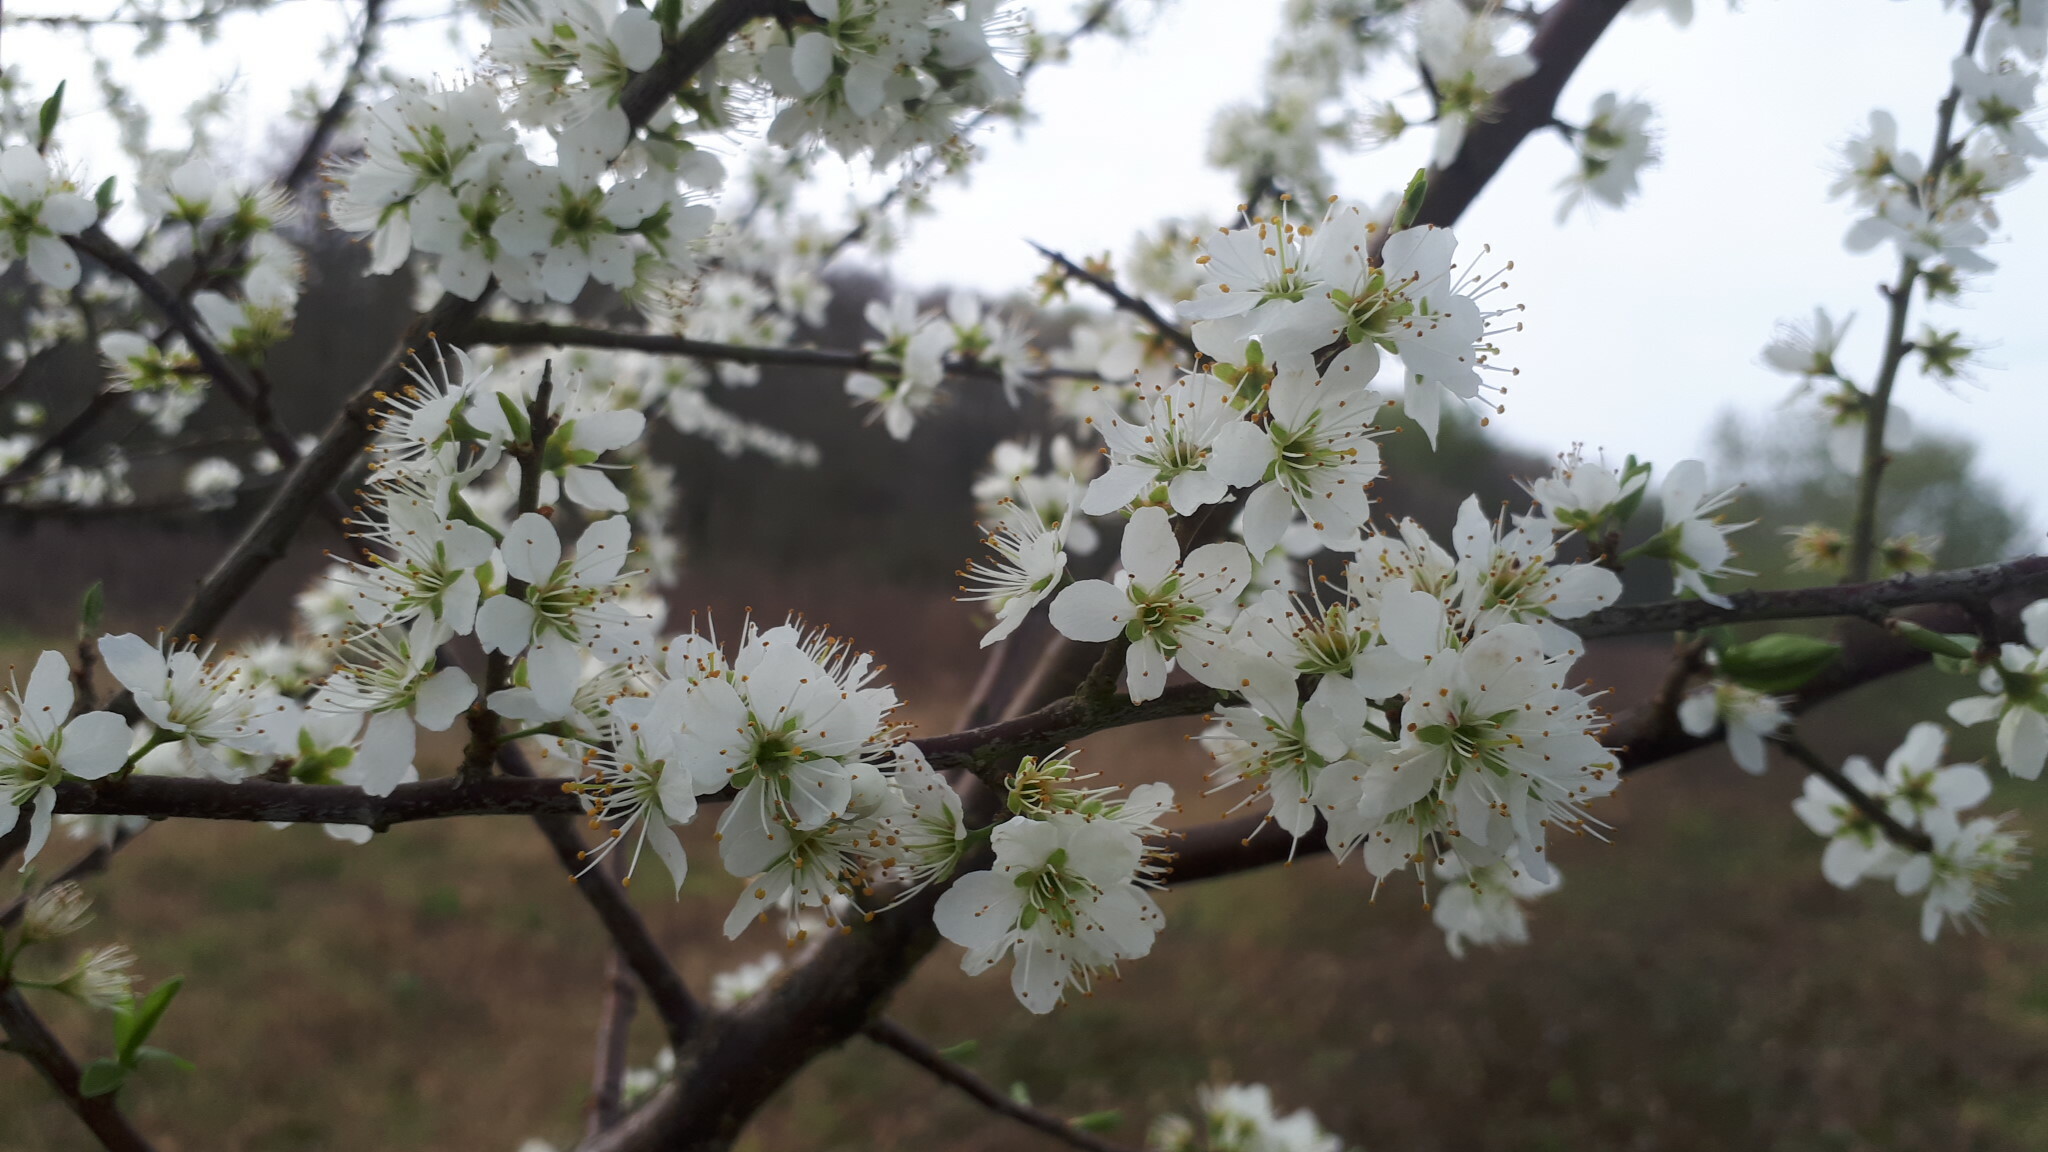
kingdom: Plantae
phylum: Tracheophyta
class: Magnoliopsida
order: Rosales
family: Rosaceae
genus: Prunus
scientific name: Prunus spinosa
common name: Blackthorn
